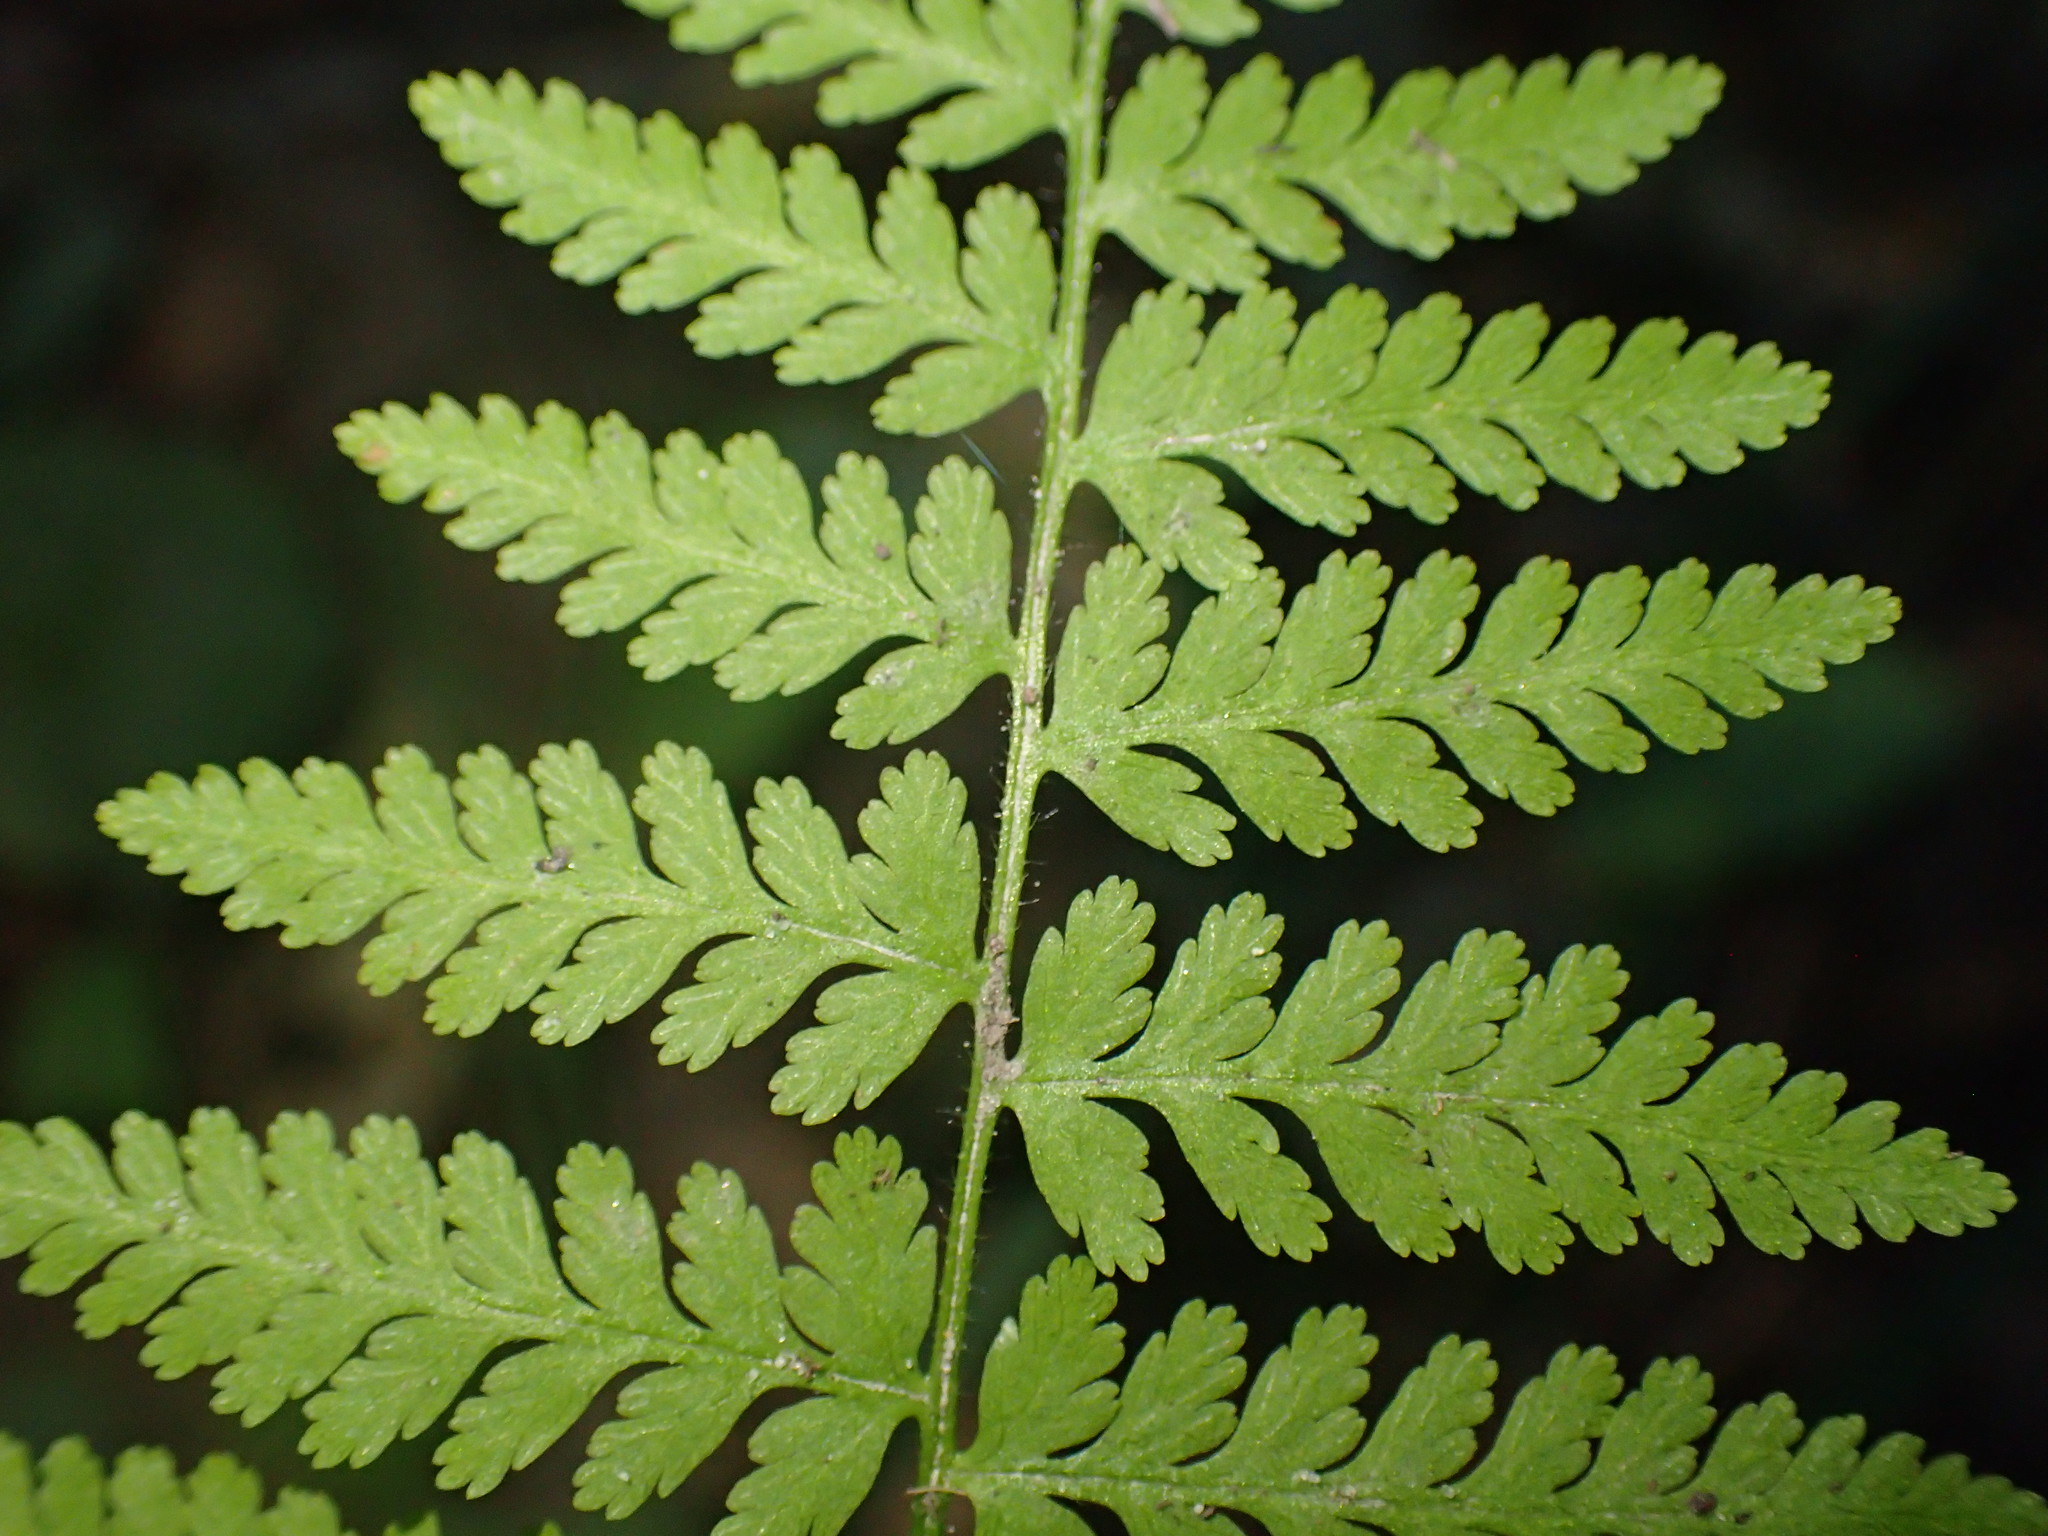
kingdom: Plantae
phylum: Tracheophyta
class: Polypodiopsida
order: Polypodiales
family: Dennstaedtiaceae
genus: Sitobolium
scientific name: Sitobolium punctilobum
